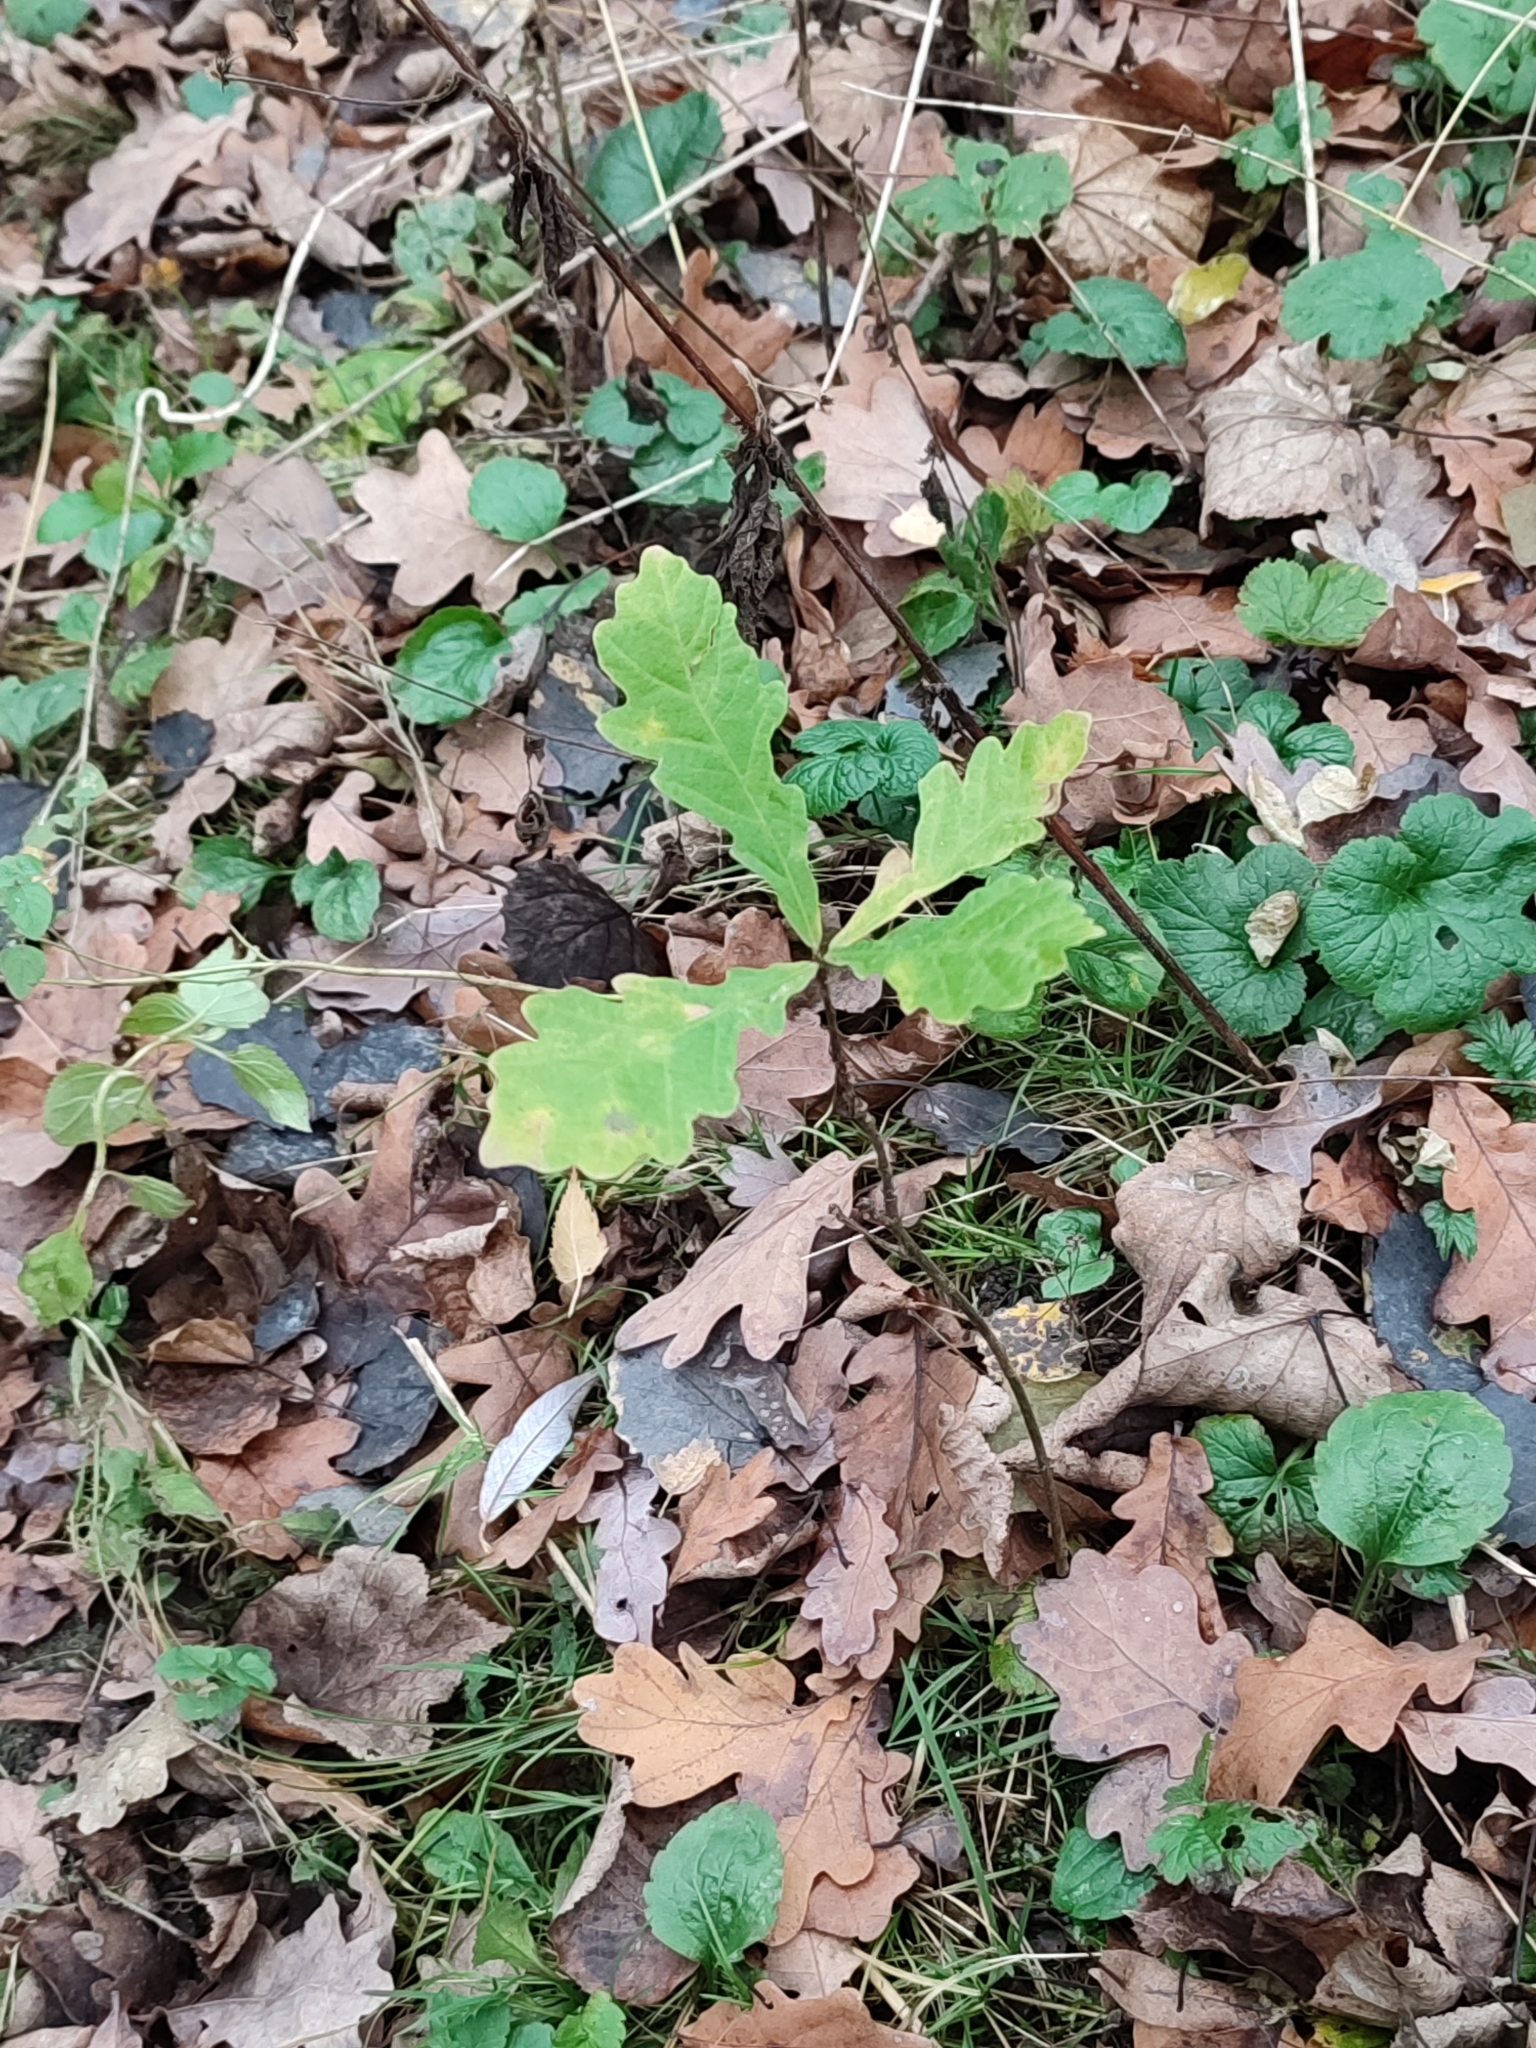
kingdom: Plantae
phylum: Tracheophyta
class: Magnoliopsida
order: Fagales
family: Fagaceae
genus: Quercus
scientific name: Quercus robur
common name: Pedunculate oak
